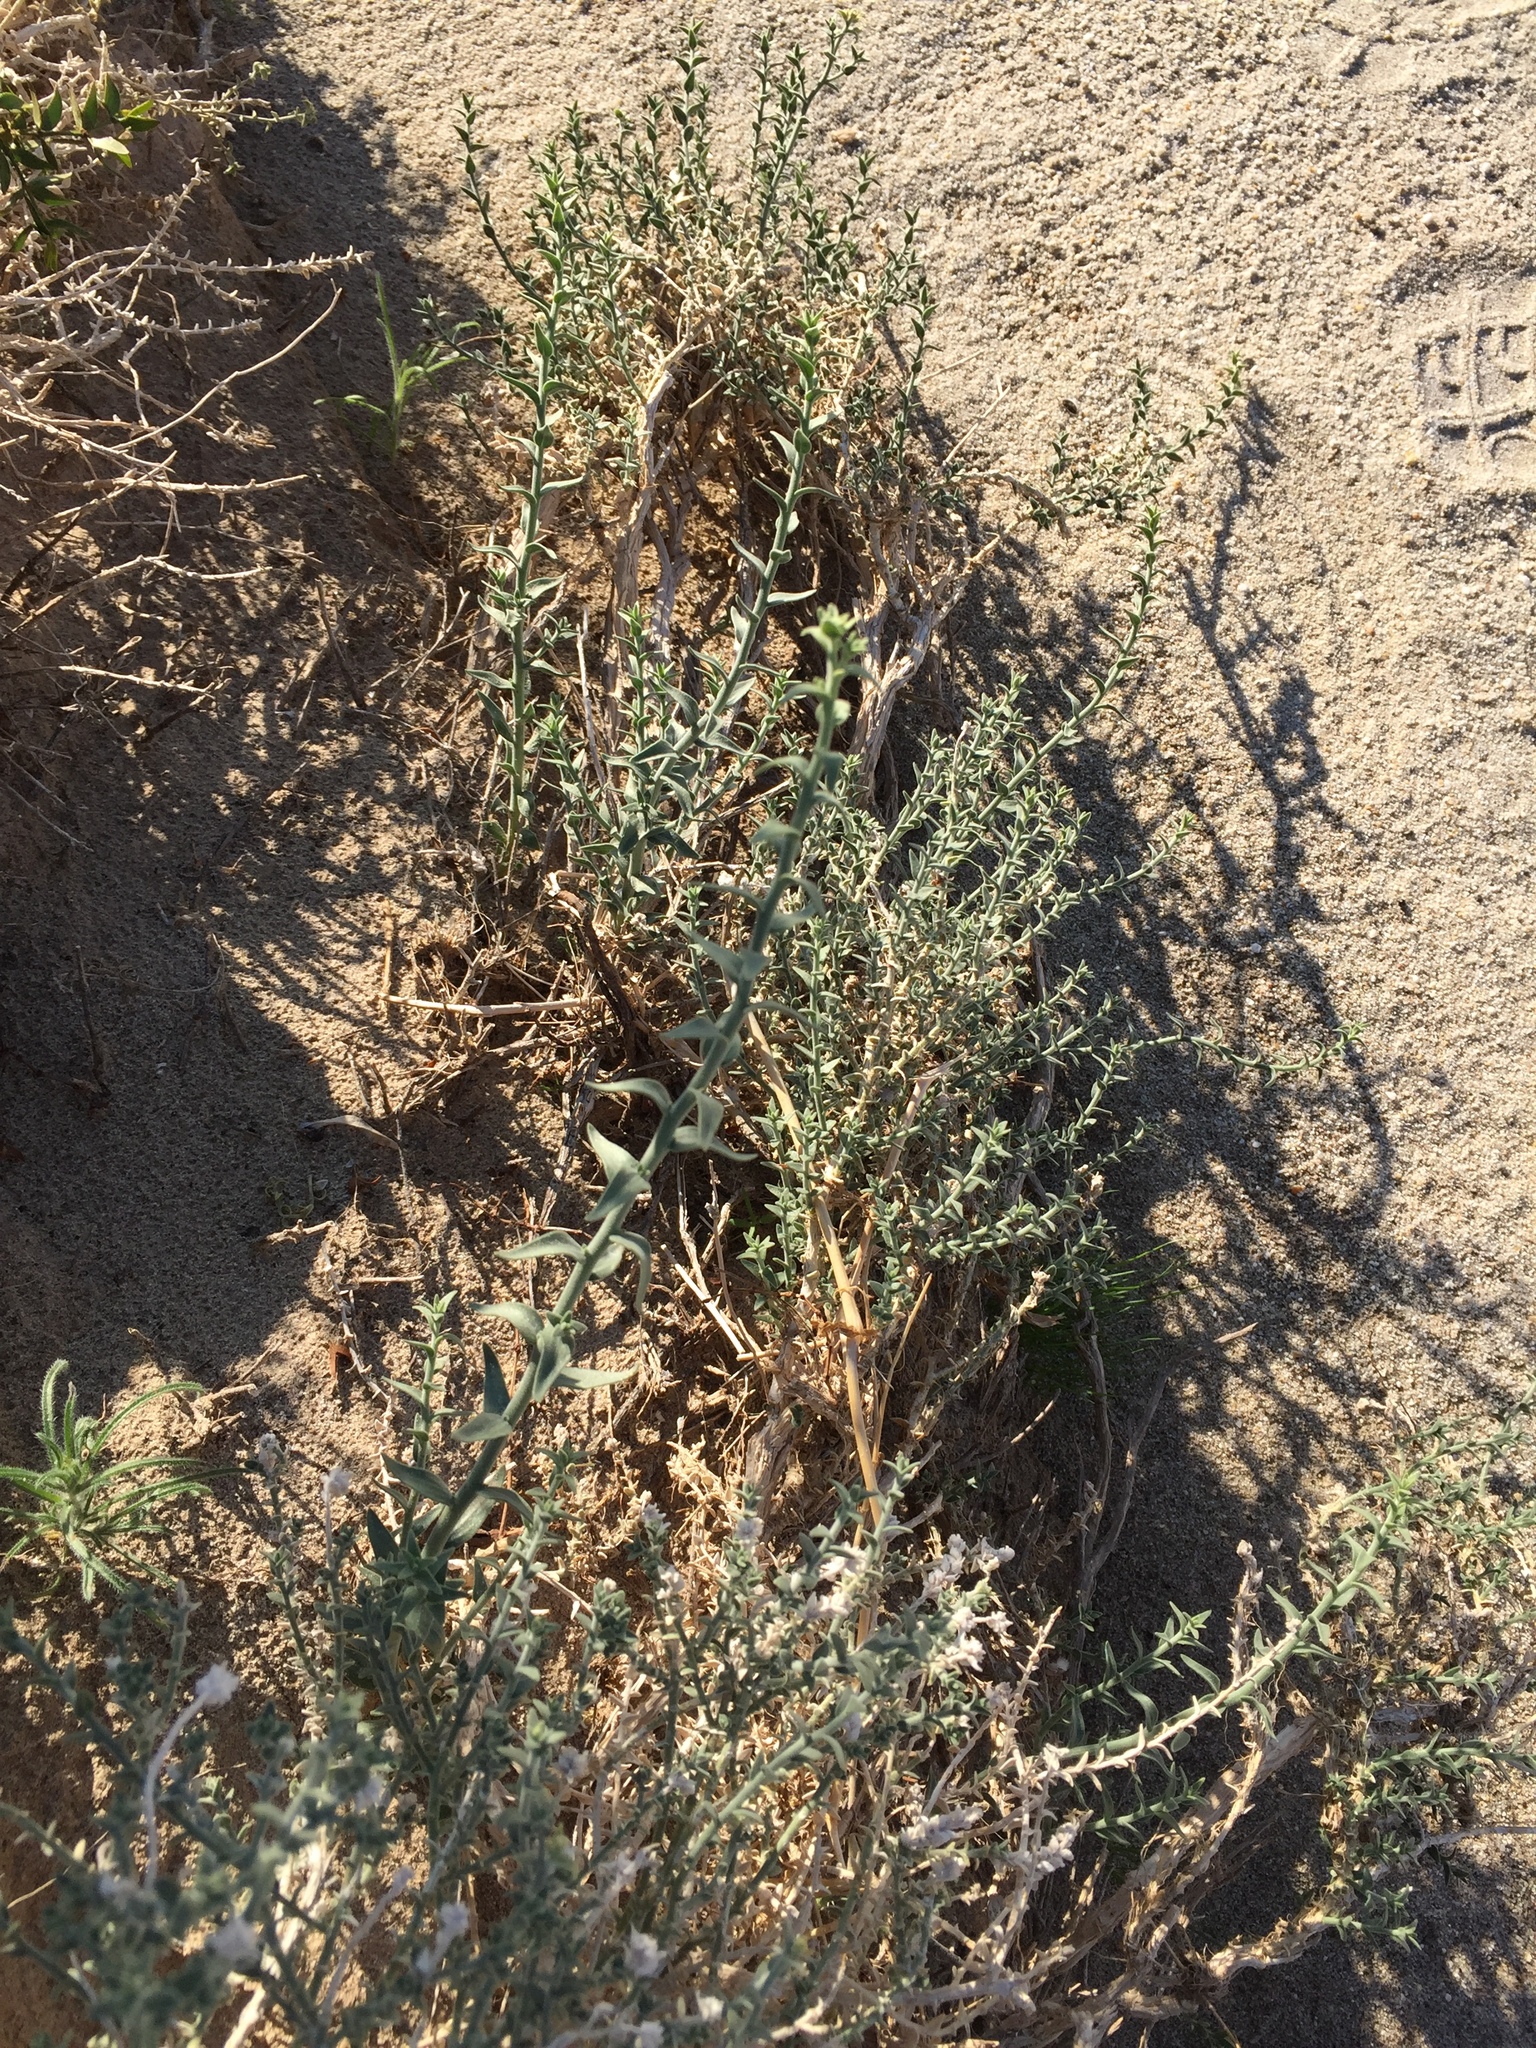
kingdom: Plantae
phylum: Tracheophyta
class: Magnoliopsida
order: Cornales
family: Loasaceae
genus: Petalonyx
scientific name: Petalonyx thurberi
